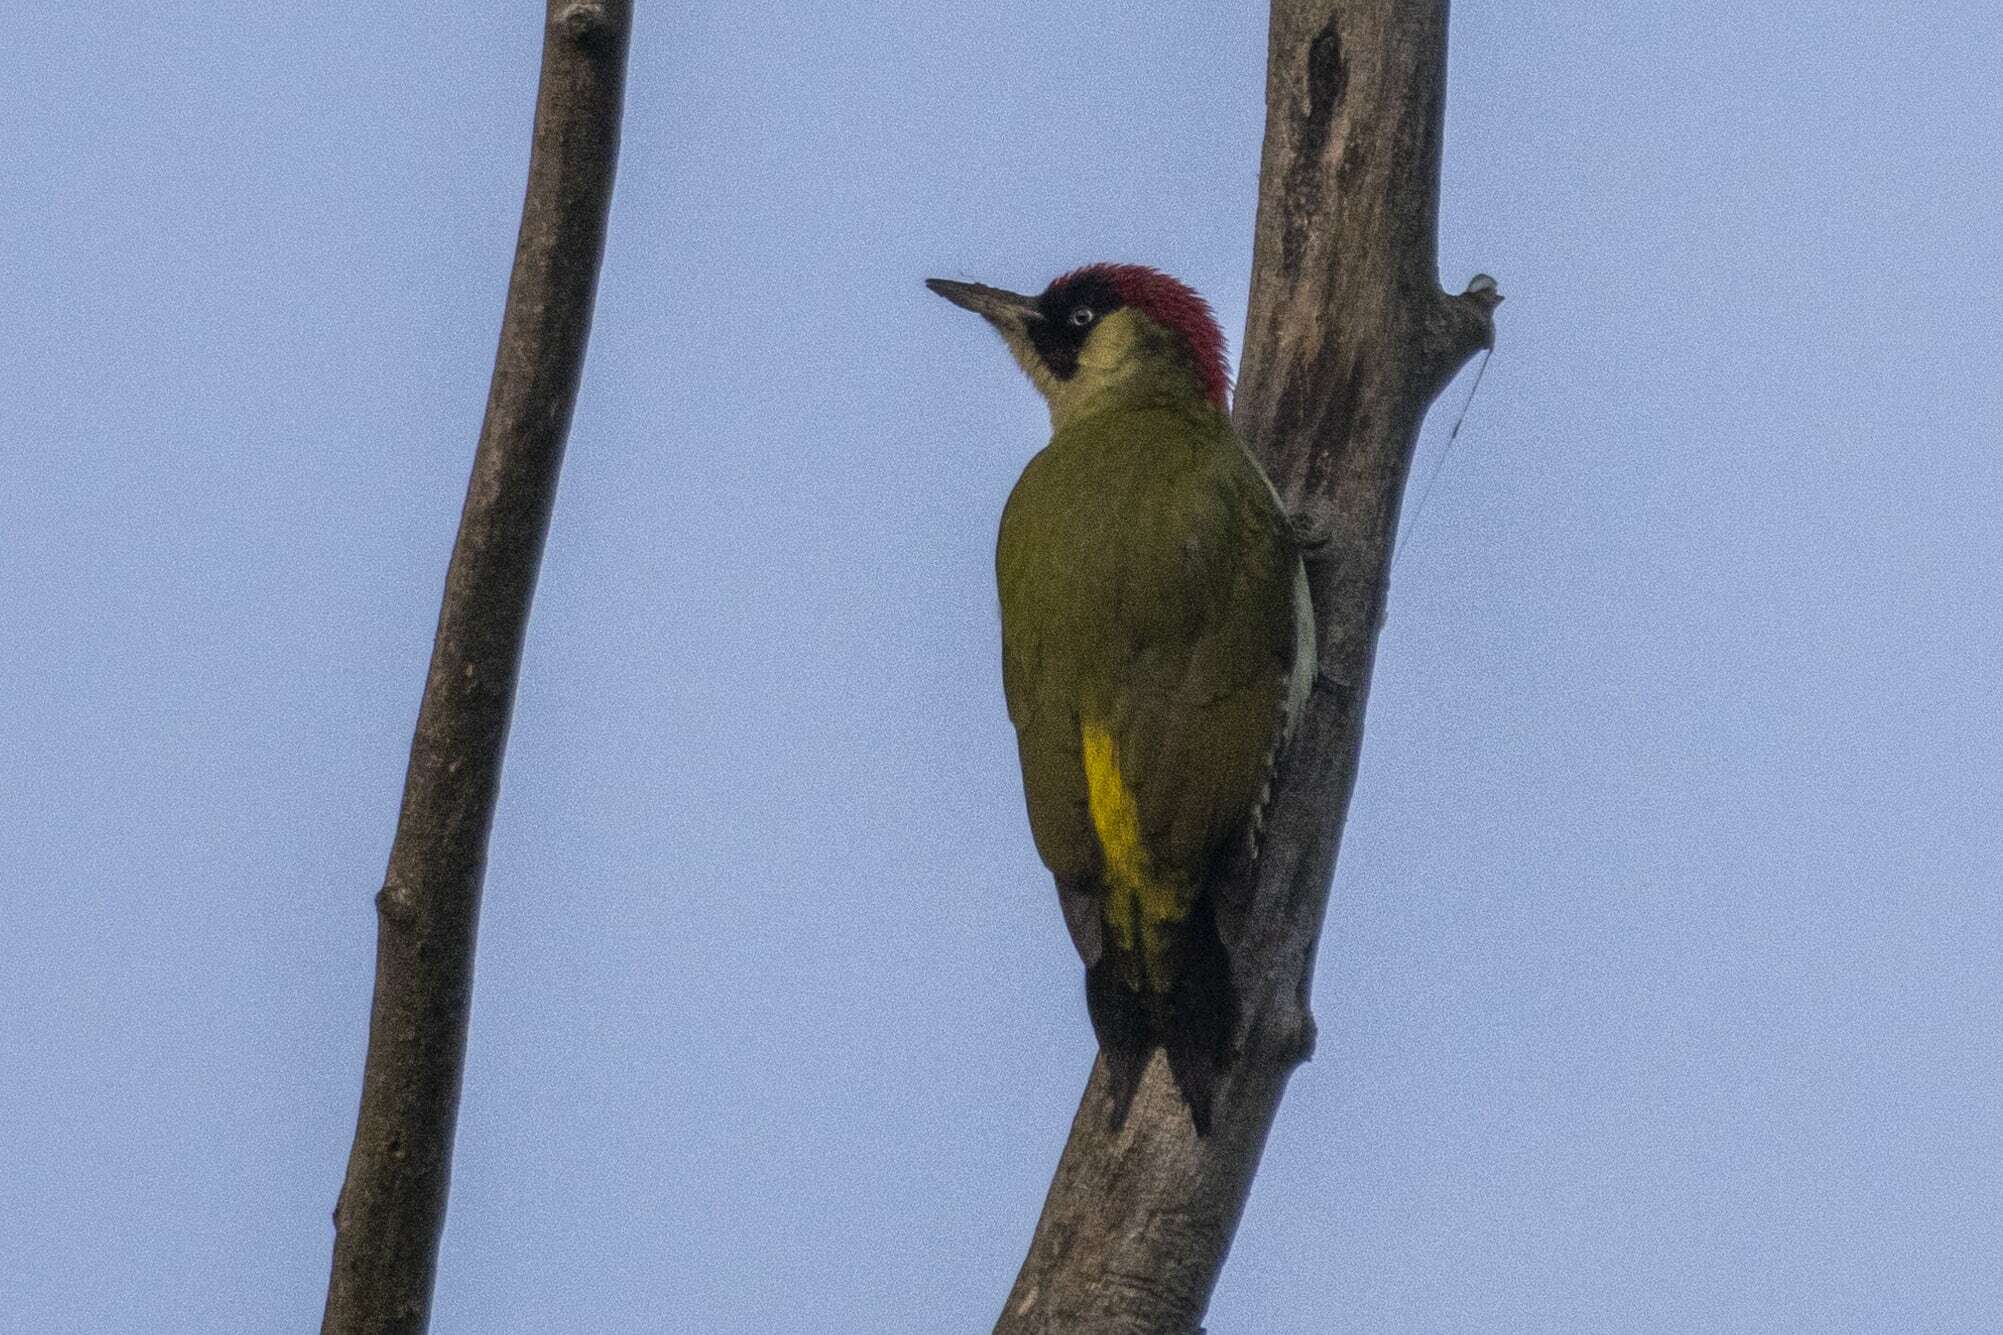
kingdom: Animalia
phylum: Chordata
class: Aves
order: Piciformes
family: Picidae
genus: Picus
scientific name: Picus viridis
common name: European green woodpecker
